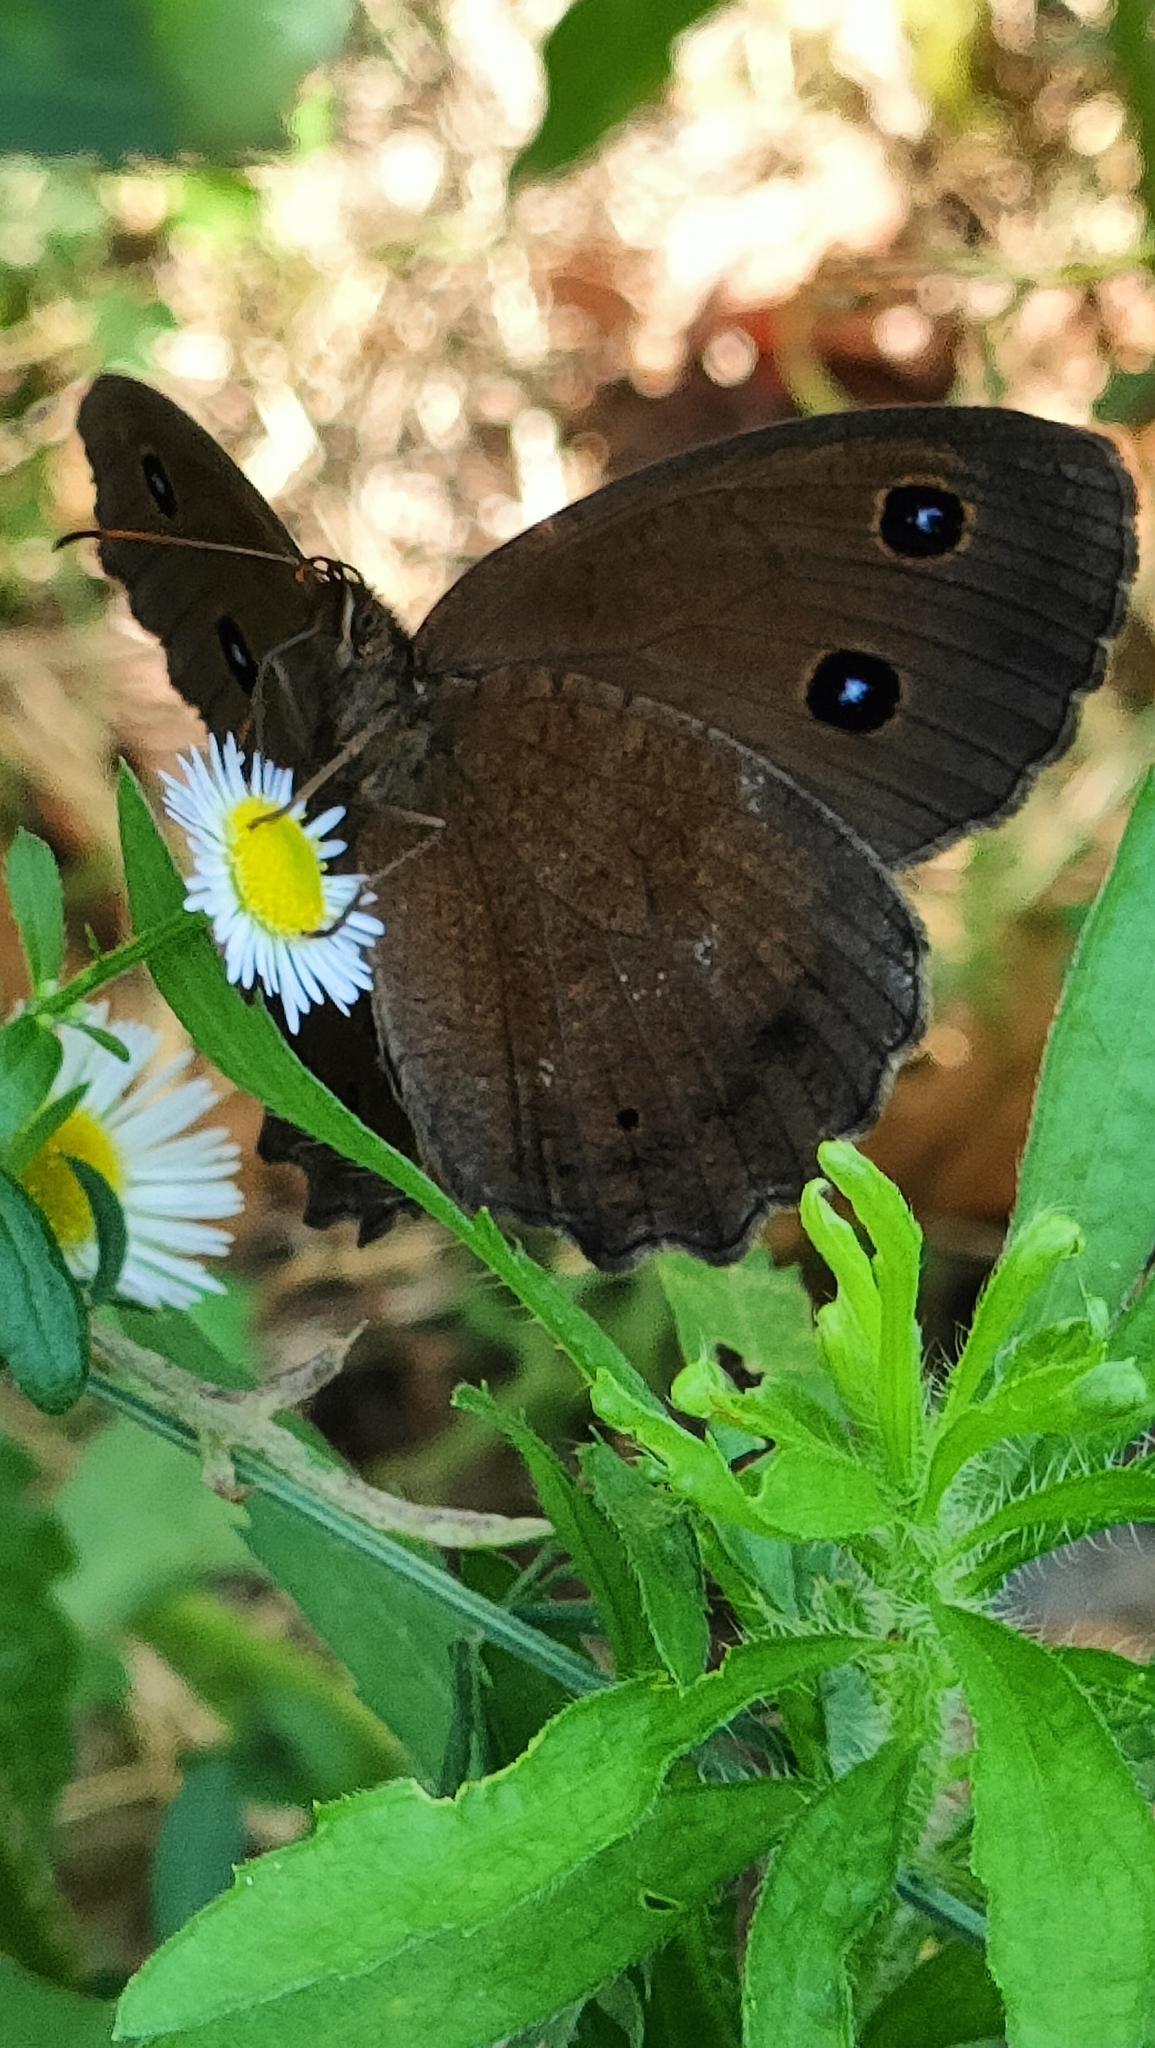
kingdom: Animalia
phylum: Arthropoda
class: Insecta
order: Lepidoptera
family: Nymphalidae
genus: Minois
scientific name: Minois dryas
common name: Dryad
